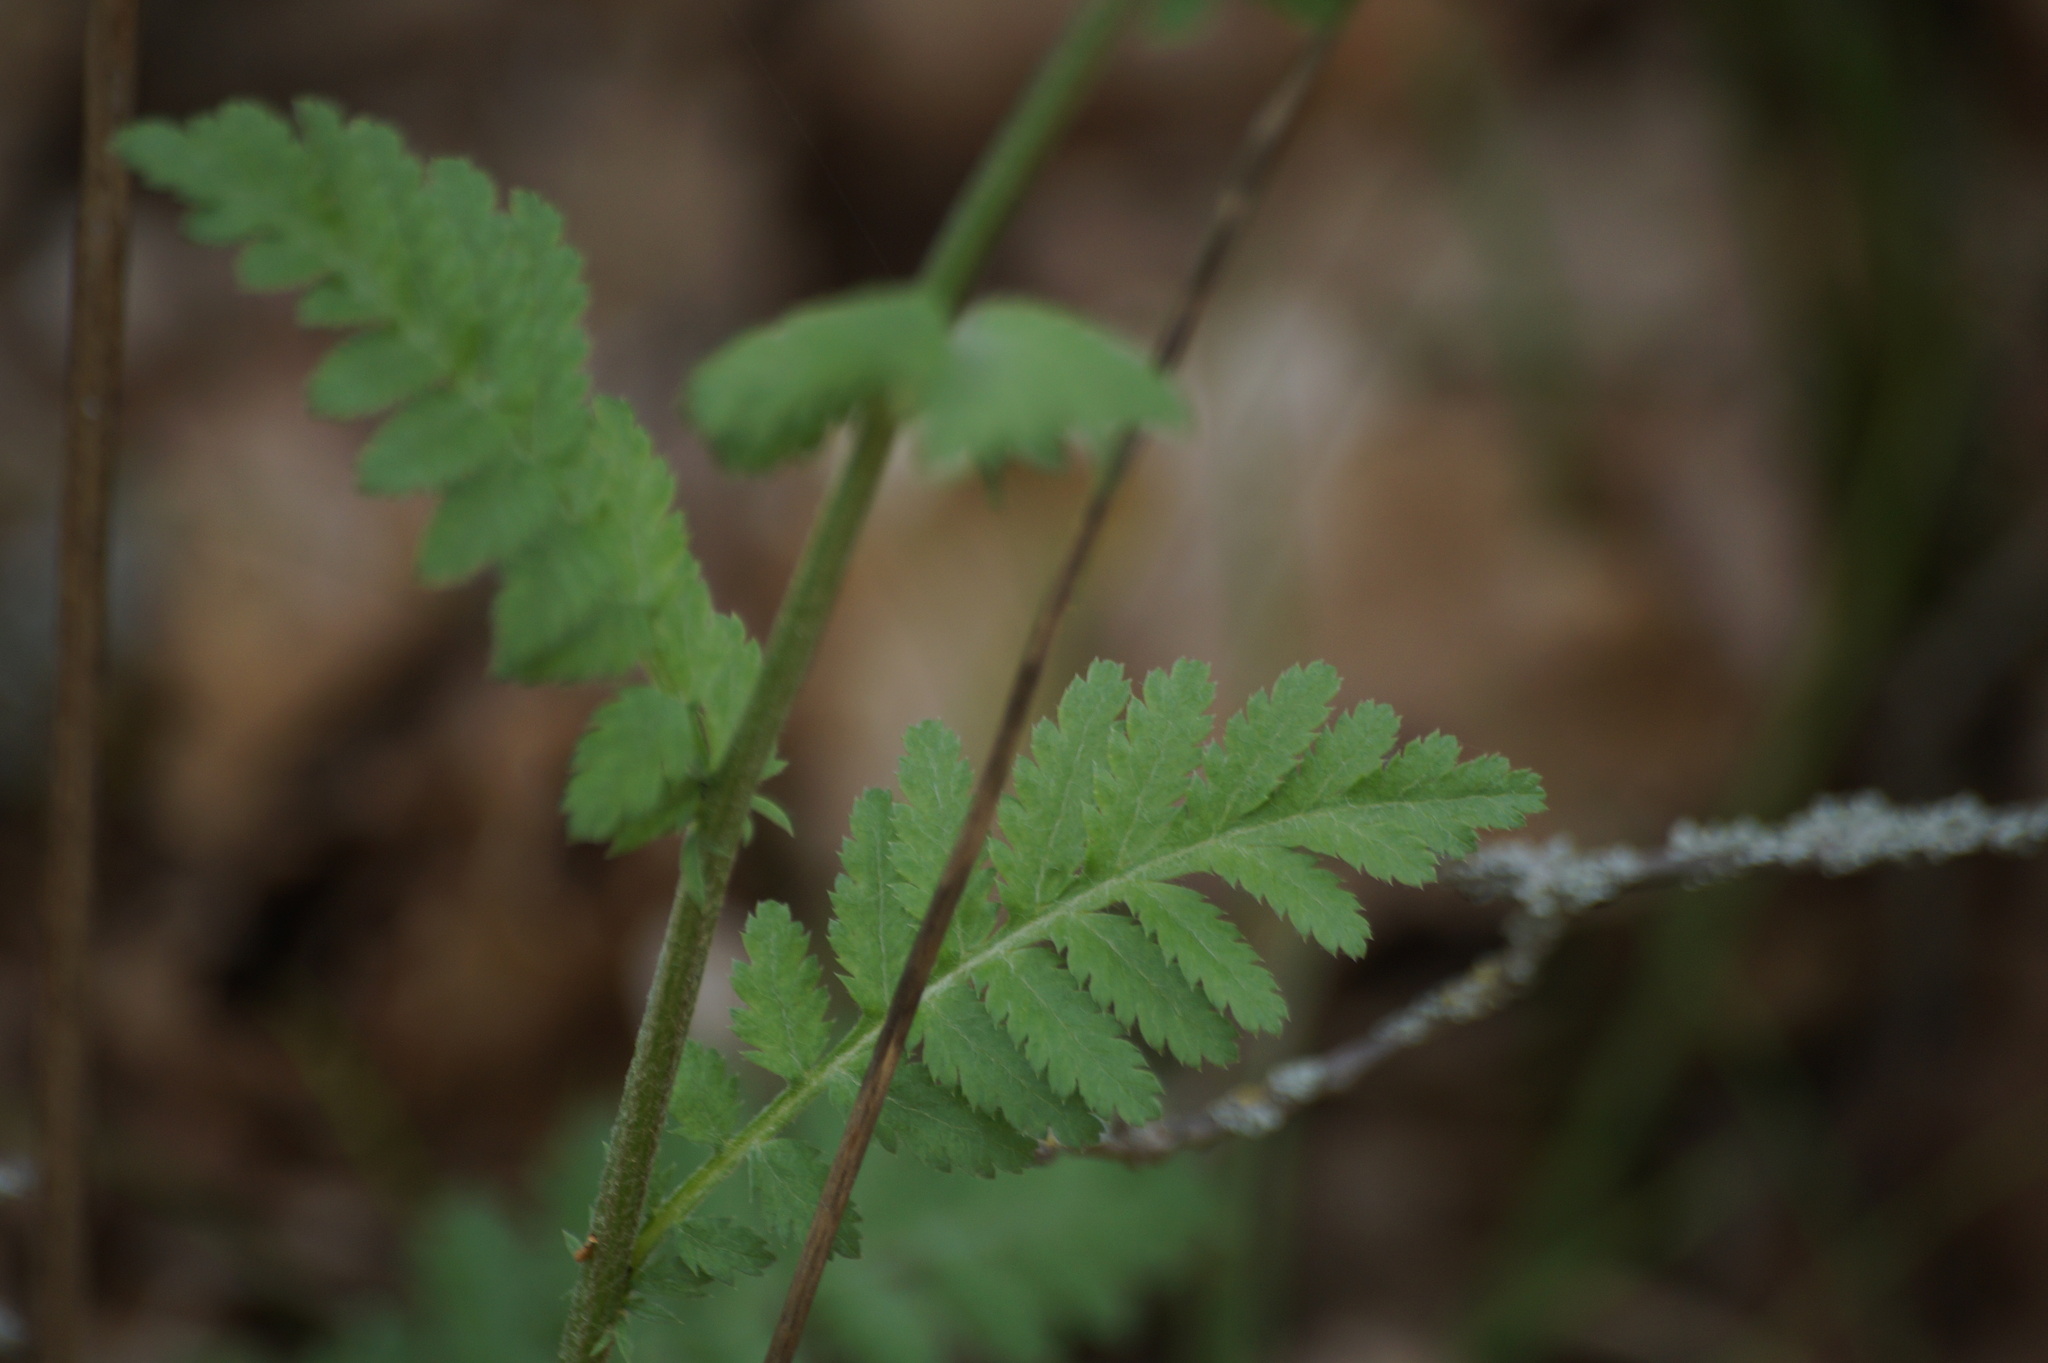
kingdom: Plantae
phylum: Tracheophyta
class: Magnoliopsida
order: Asterales
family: Asteraceae
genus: Tanacetum
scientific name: Tanacetum corymbosum
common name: Scentless feverfew
